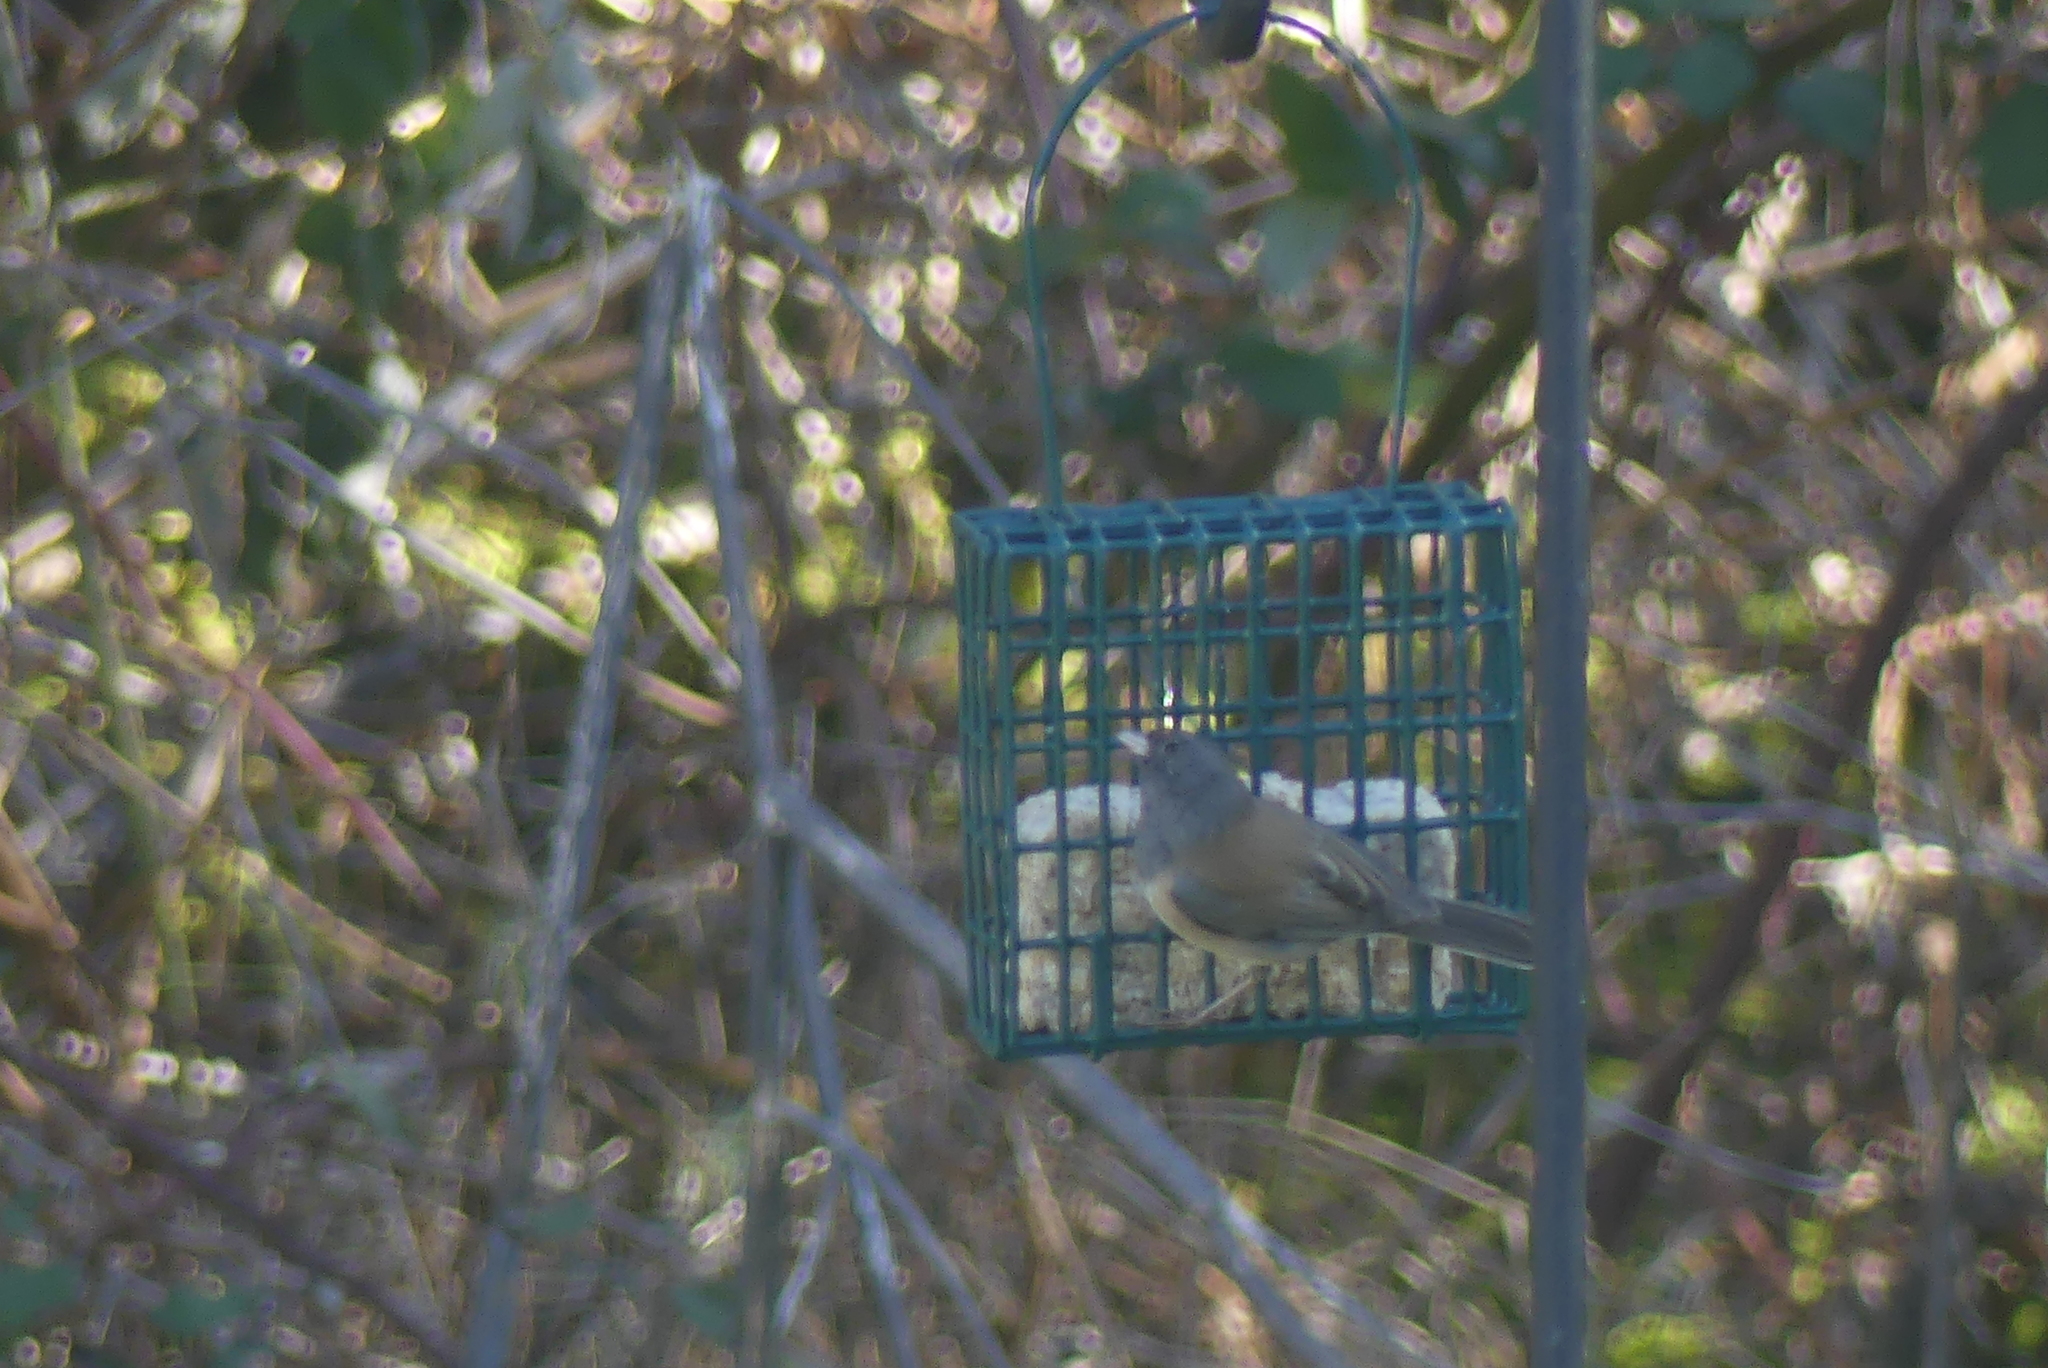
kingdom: Animalia
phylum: Chordata
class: Aves
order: Passeriformes
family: Passerellidae
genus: Junco
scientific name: Junco hyemalis
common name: Dark-eyed junco
